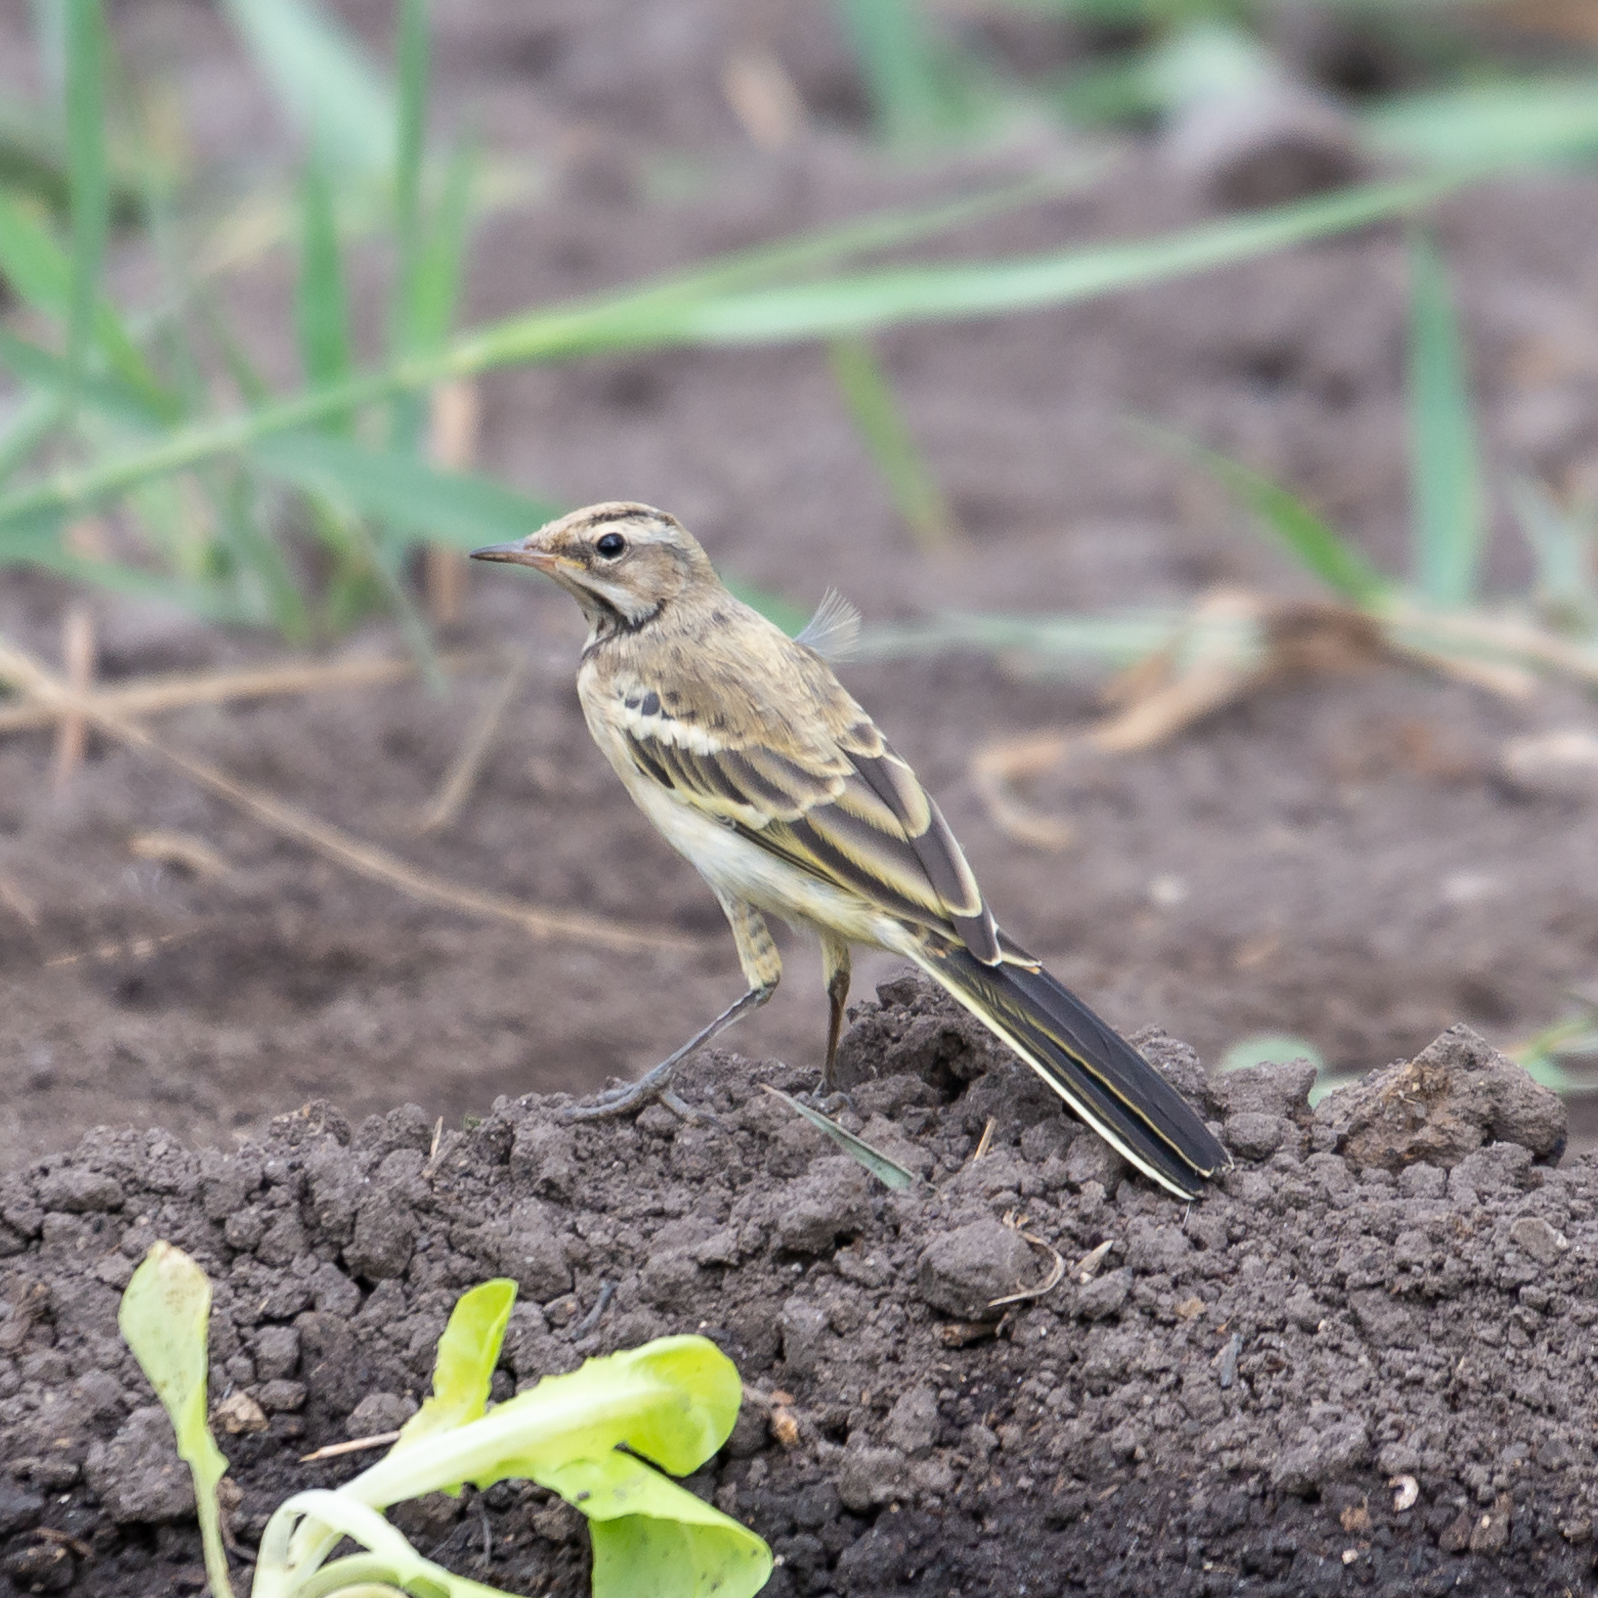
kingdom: Animalia
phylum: Chordata
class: Aves
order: Passeriformes
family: Motacillidae
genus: Motacilla
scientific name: Motacilla flava
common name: Western yellow wagtail
